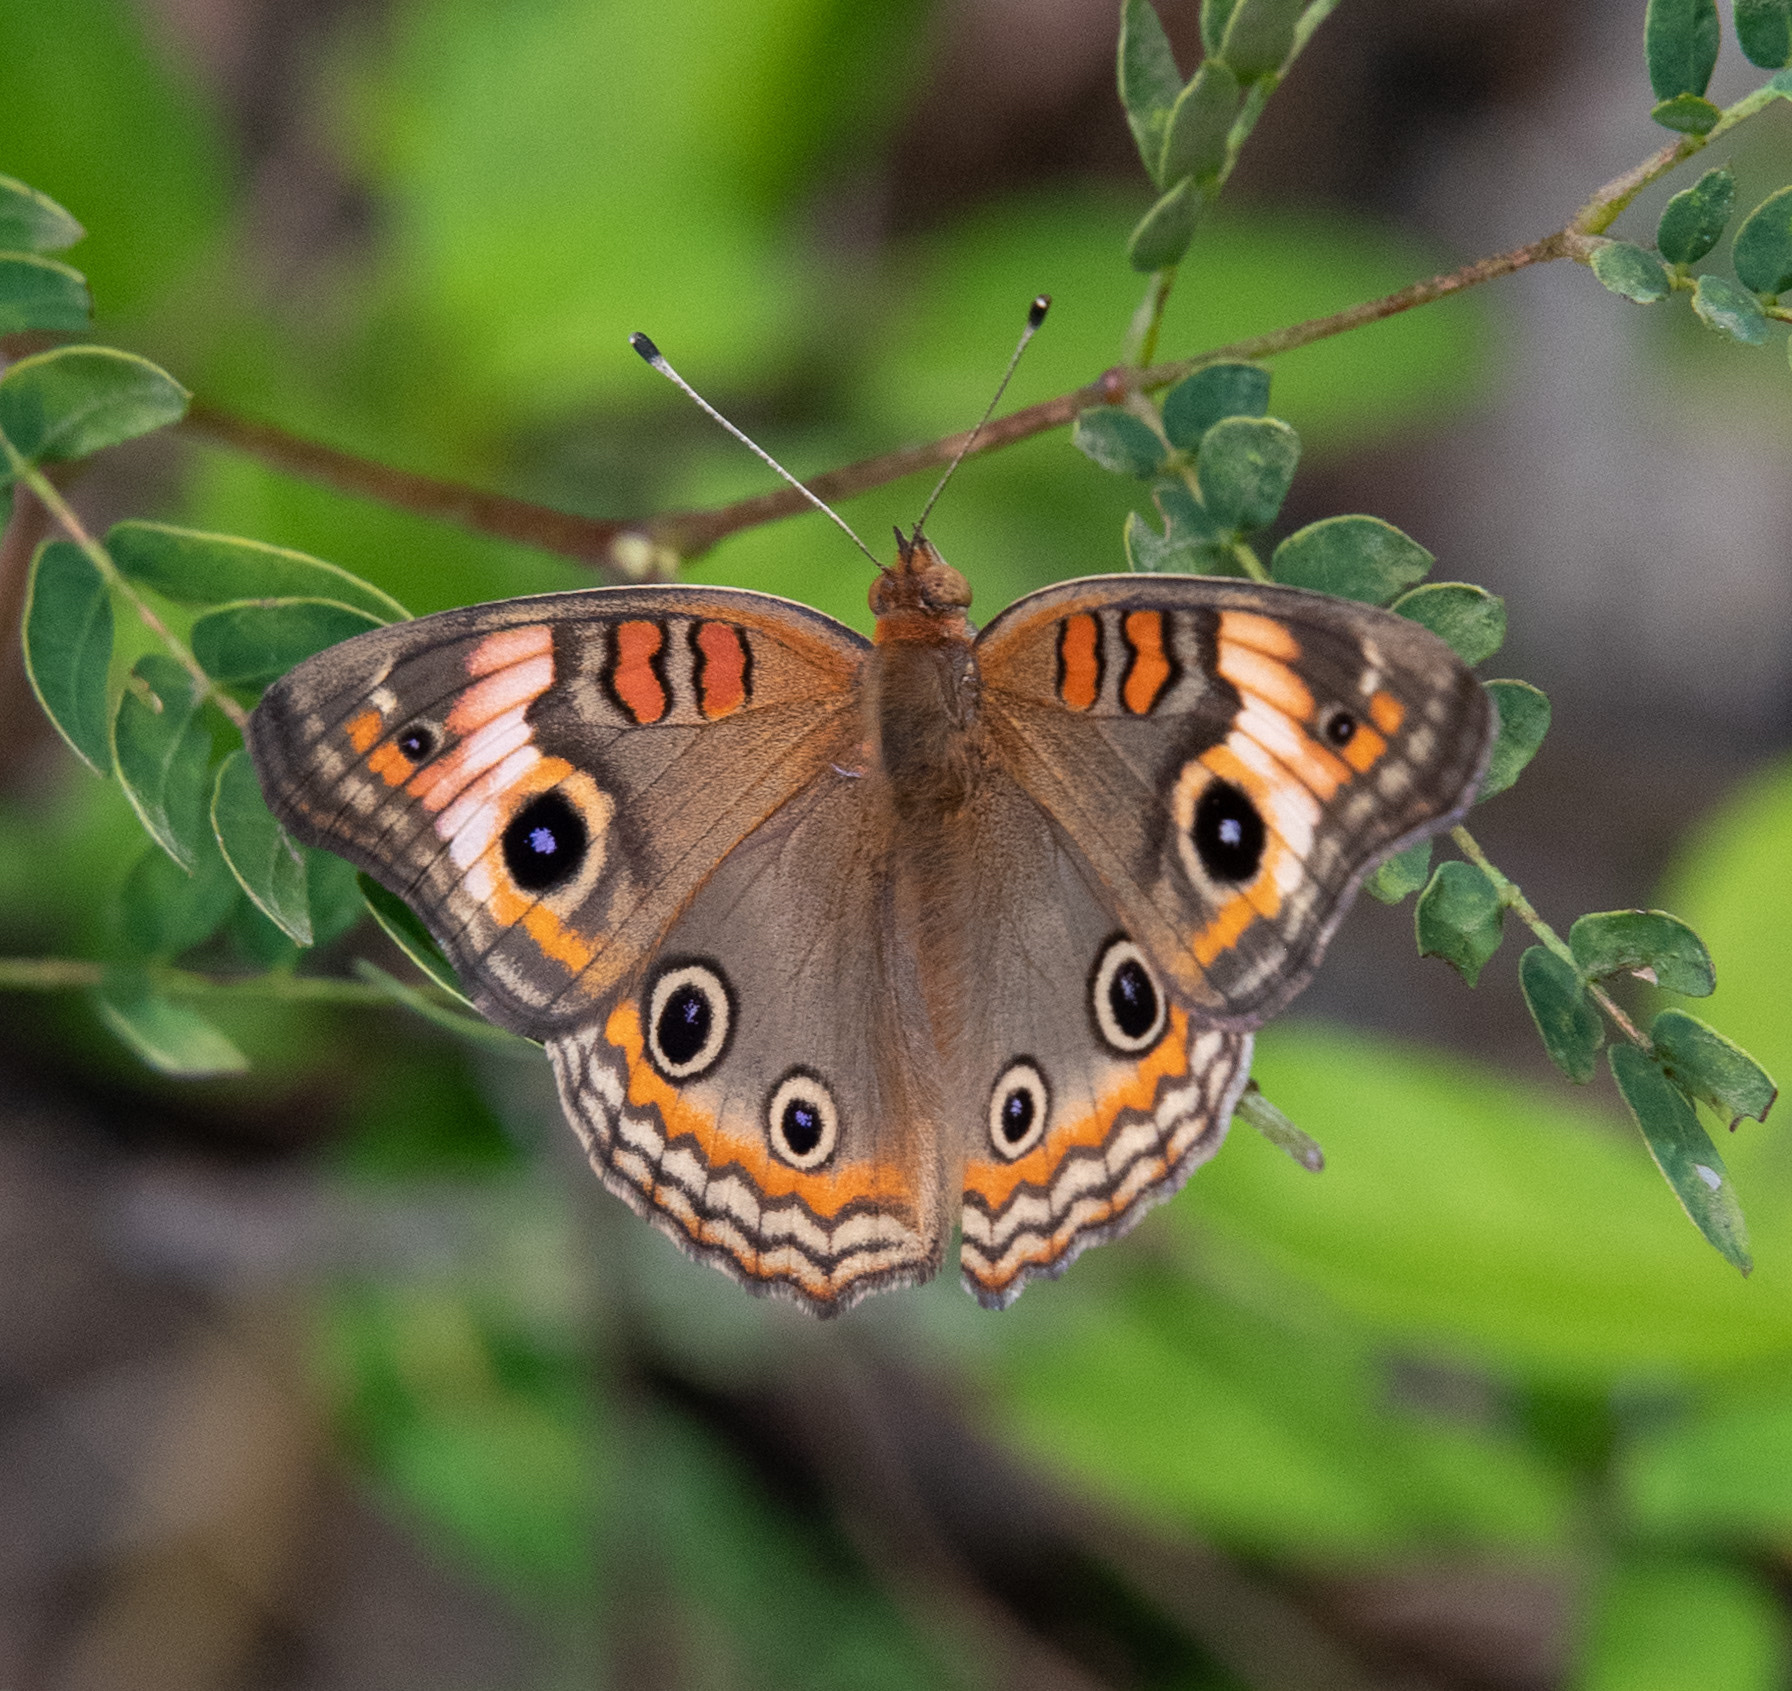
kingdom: Animalia
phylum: Arthropoda
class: Insecta
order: Lepidoptera
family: Nymphalidae
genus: Junonia
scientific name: Junonia neildi
